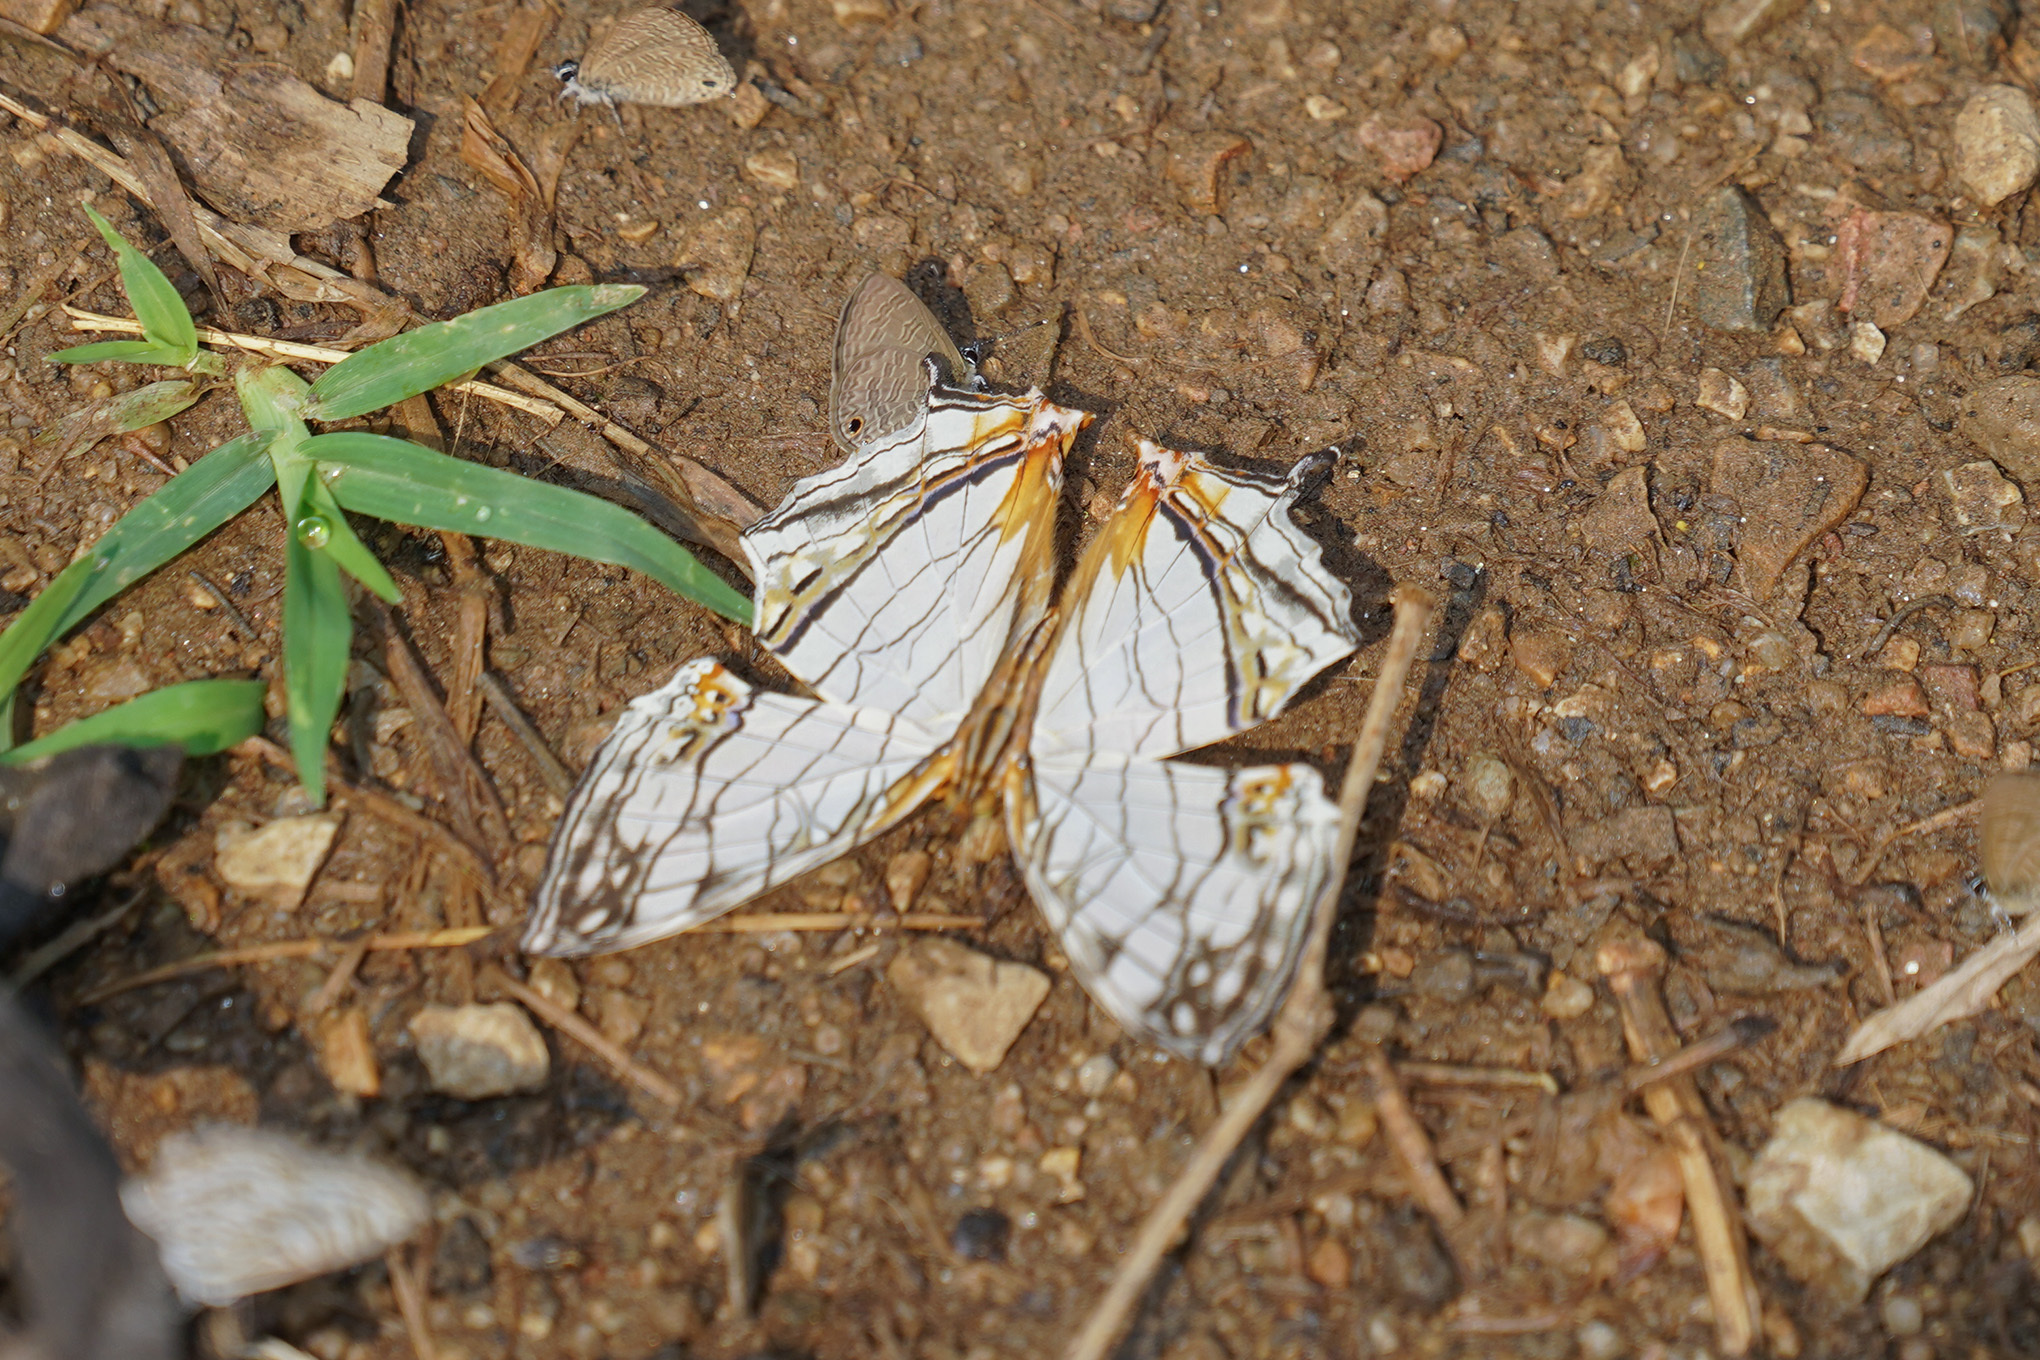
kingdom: Animalia
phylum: Arthropoda
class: Insecta
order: Lepidoptera
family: Nymphalidae
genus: Cyrestis
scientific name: Cyrestis thyodamas
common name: Common mapwing
